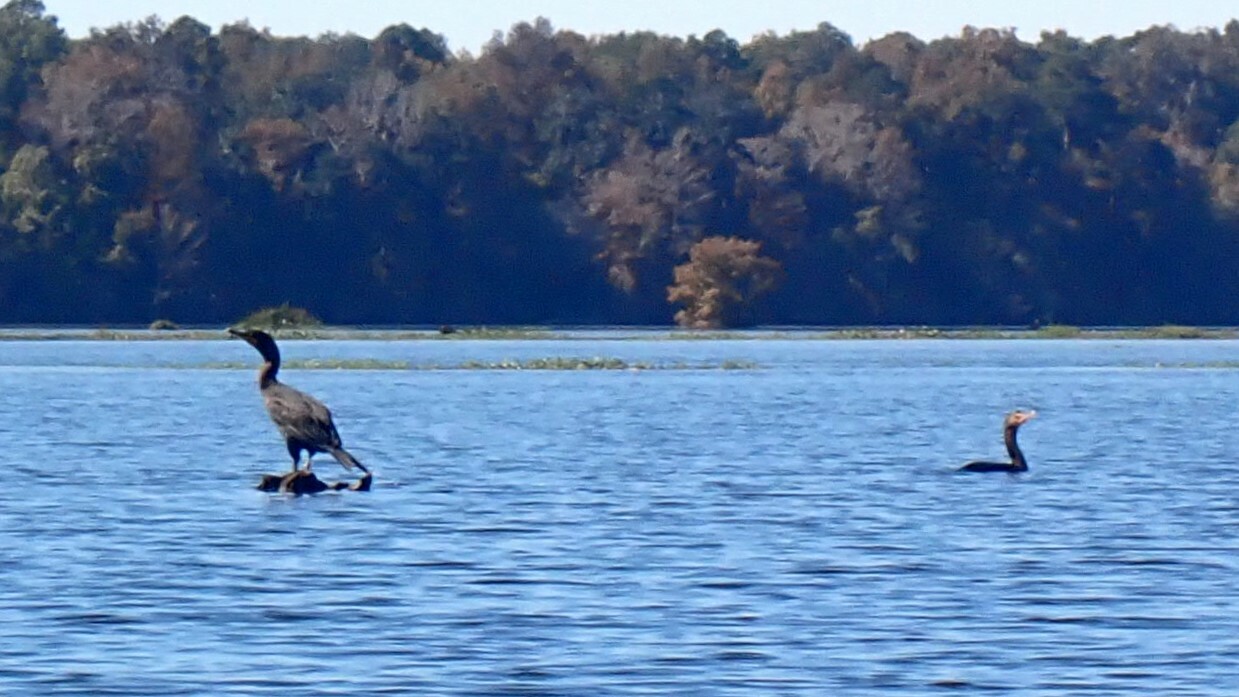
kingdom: Animalia
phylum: Chordata
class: Aves
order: Suliformes
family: Phalacrocoracidae
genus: Phalacrocorax
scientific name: Phalacrocorax auritus
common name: Double-crested cormorant
